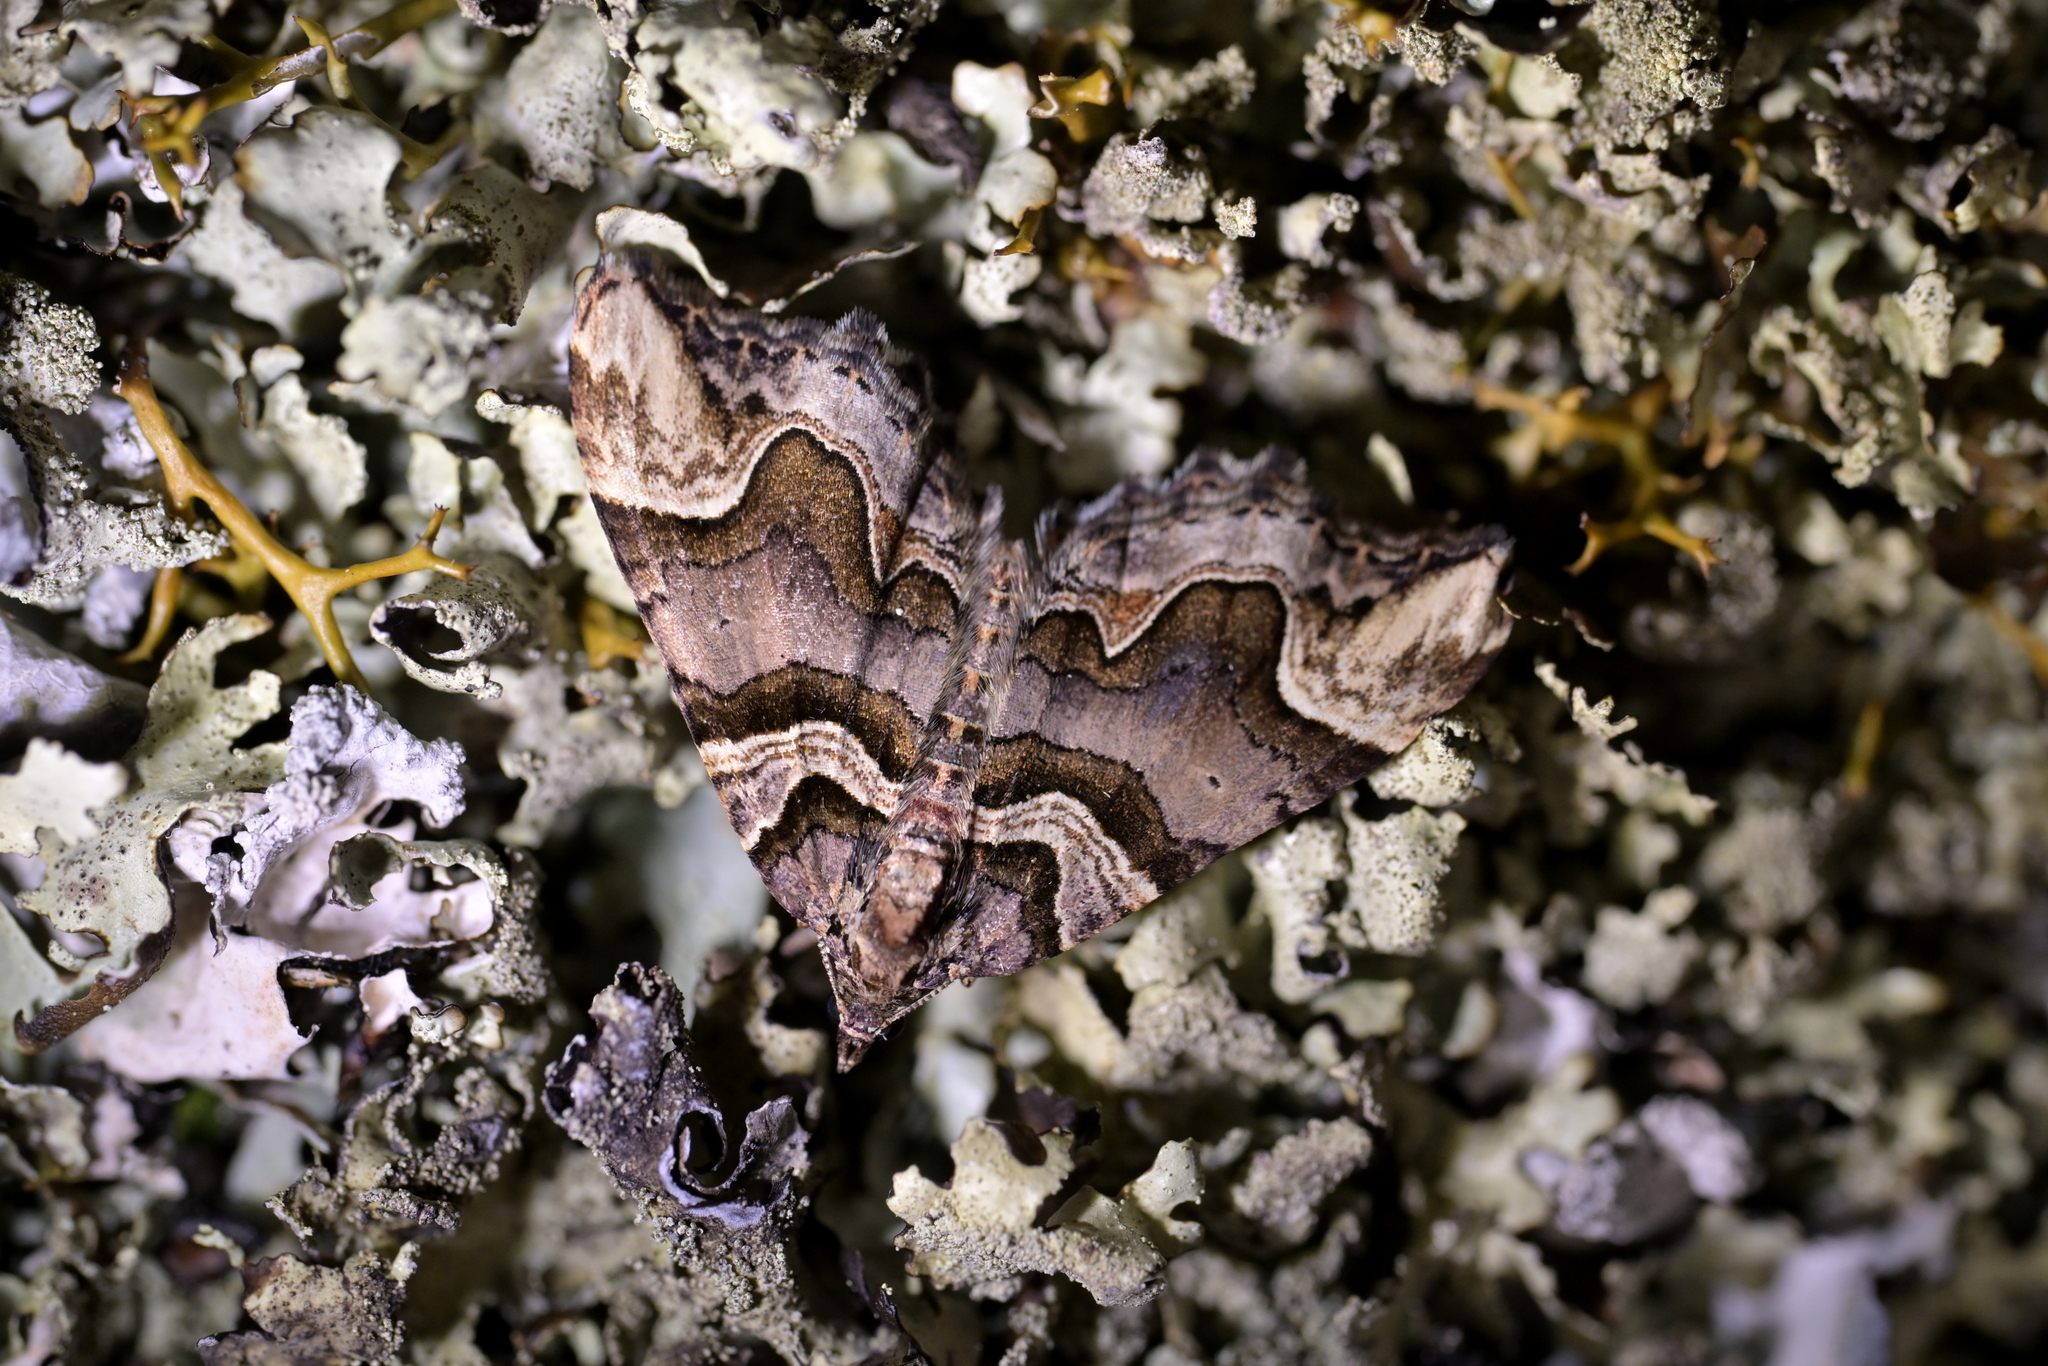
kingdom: Animalia
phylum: Arthropoda
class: Insecta
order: Lepidoptera
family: Geometridae
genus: Asaphodes
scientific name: Asaphodes chlamydota
